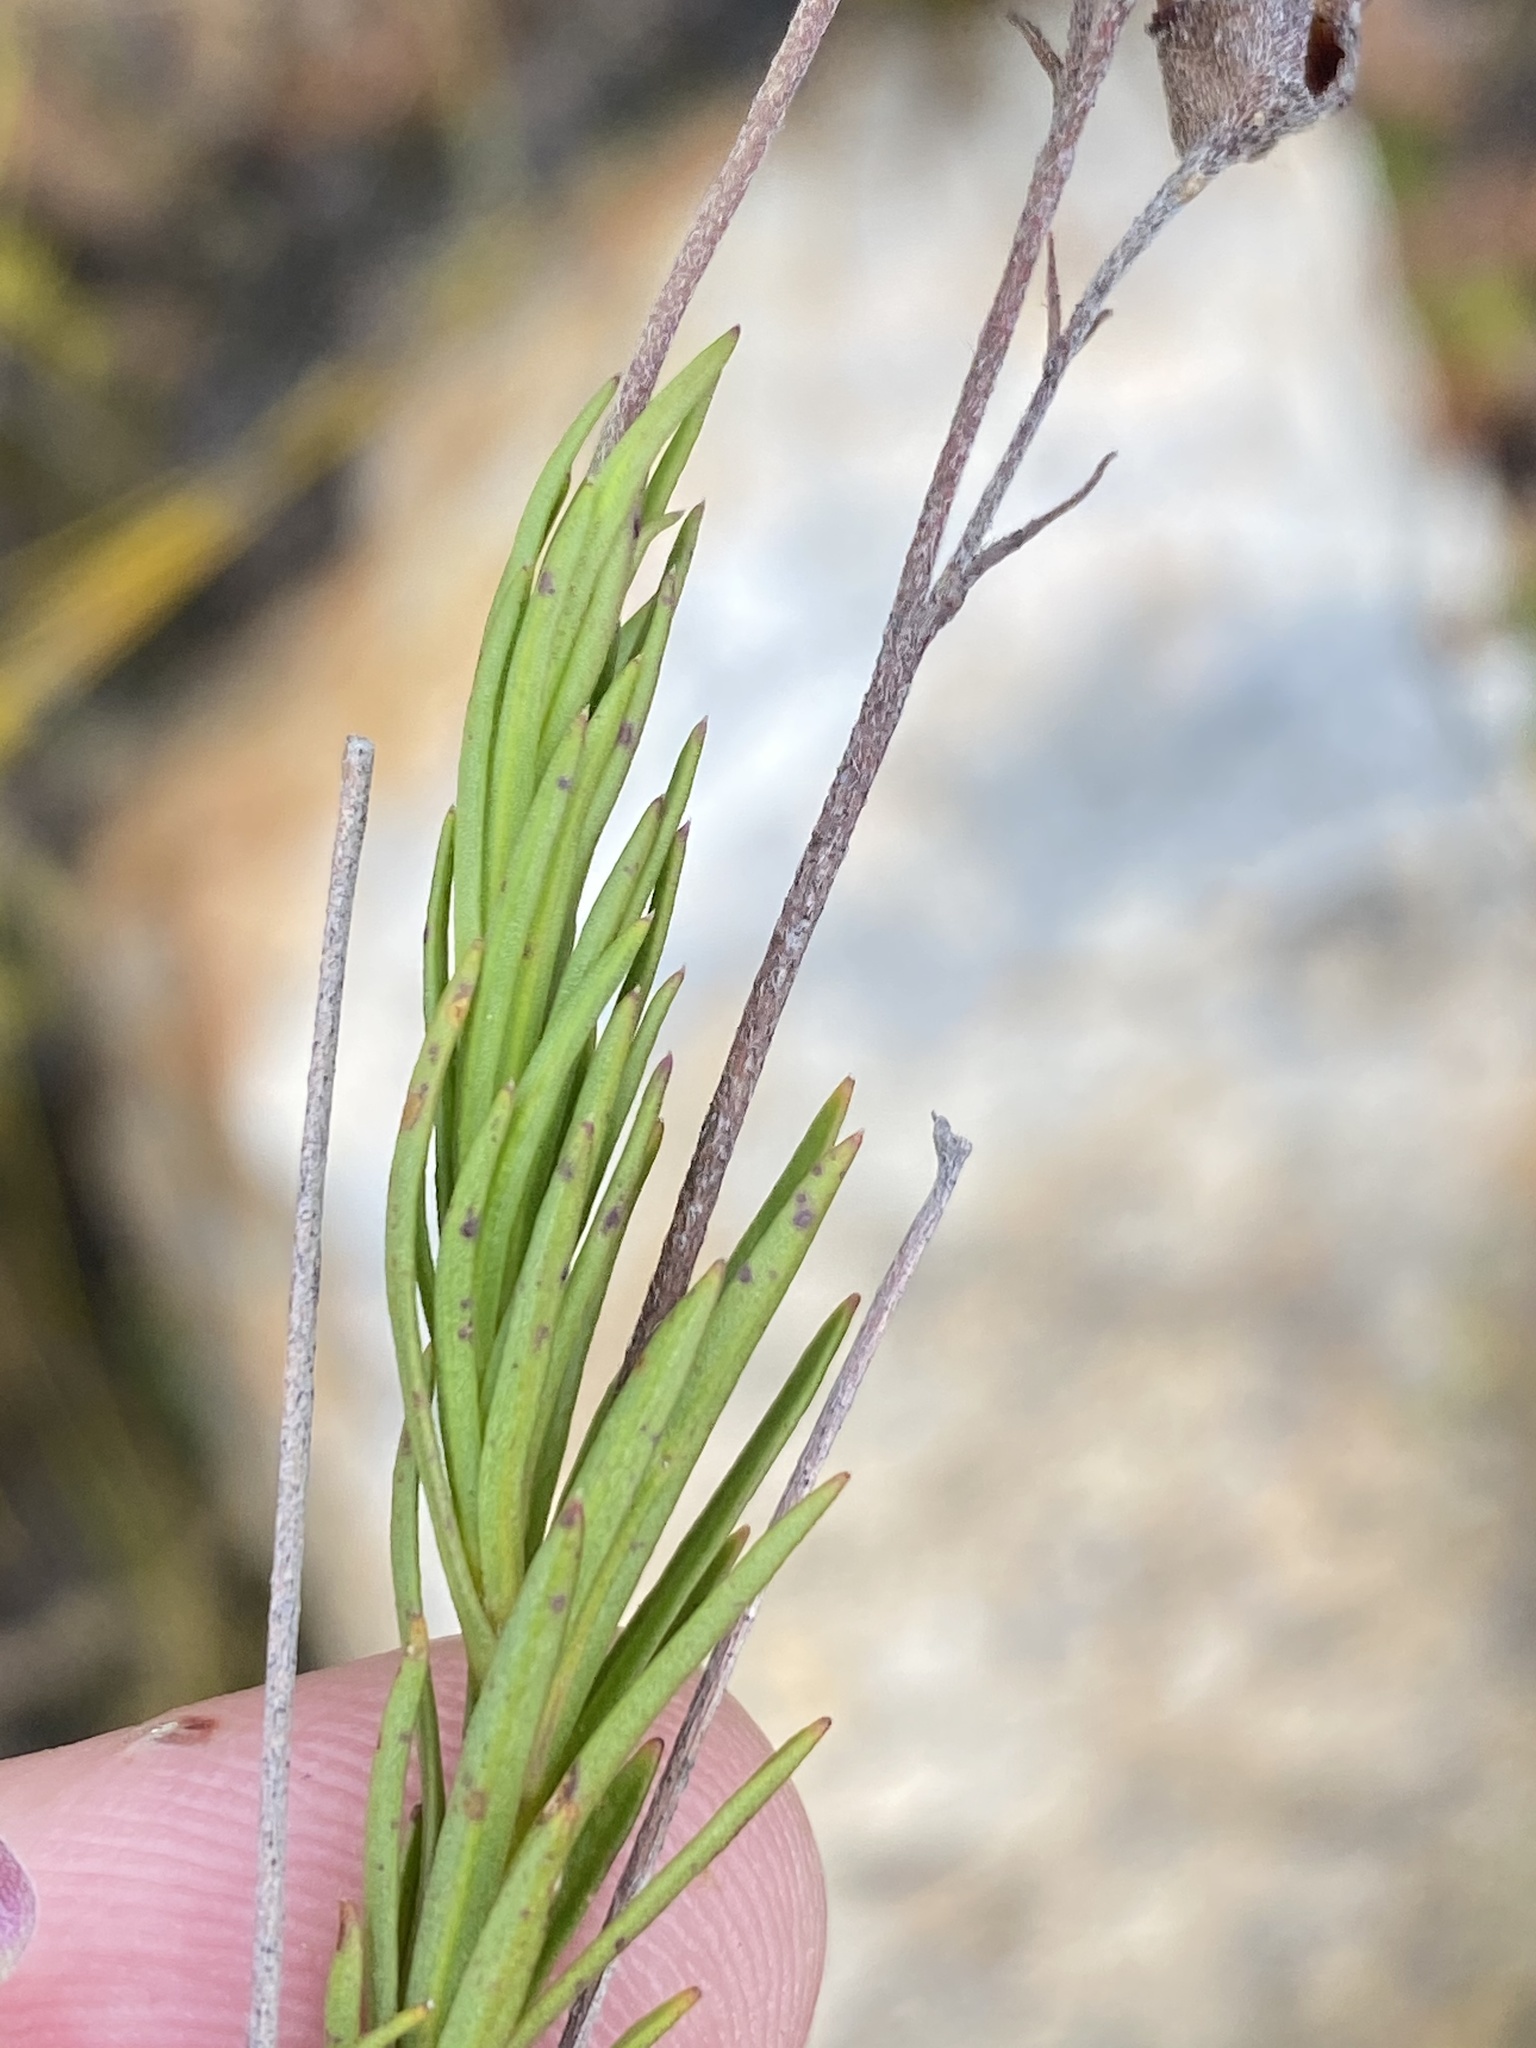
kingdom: Plantae
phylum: Tracheophyta
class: Magnoliopsida
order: Asterales
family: Campanulaceae
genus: Lobelia
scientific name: Lobelia pinifolia
